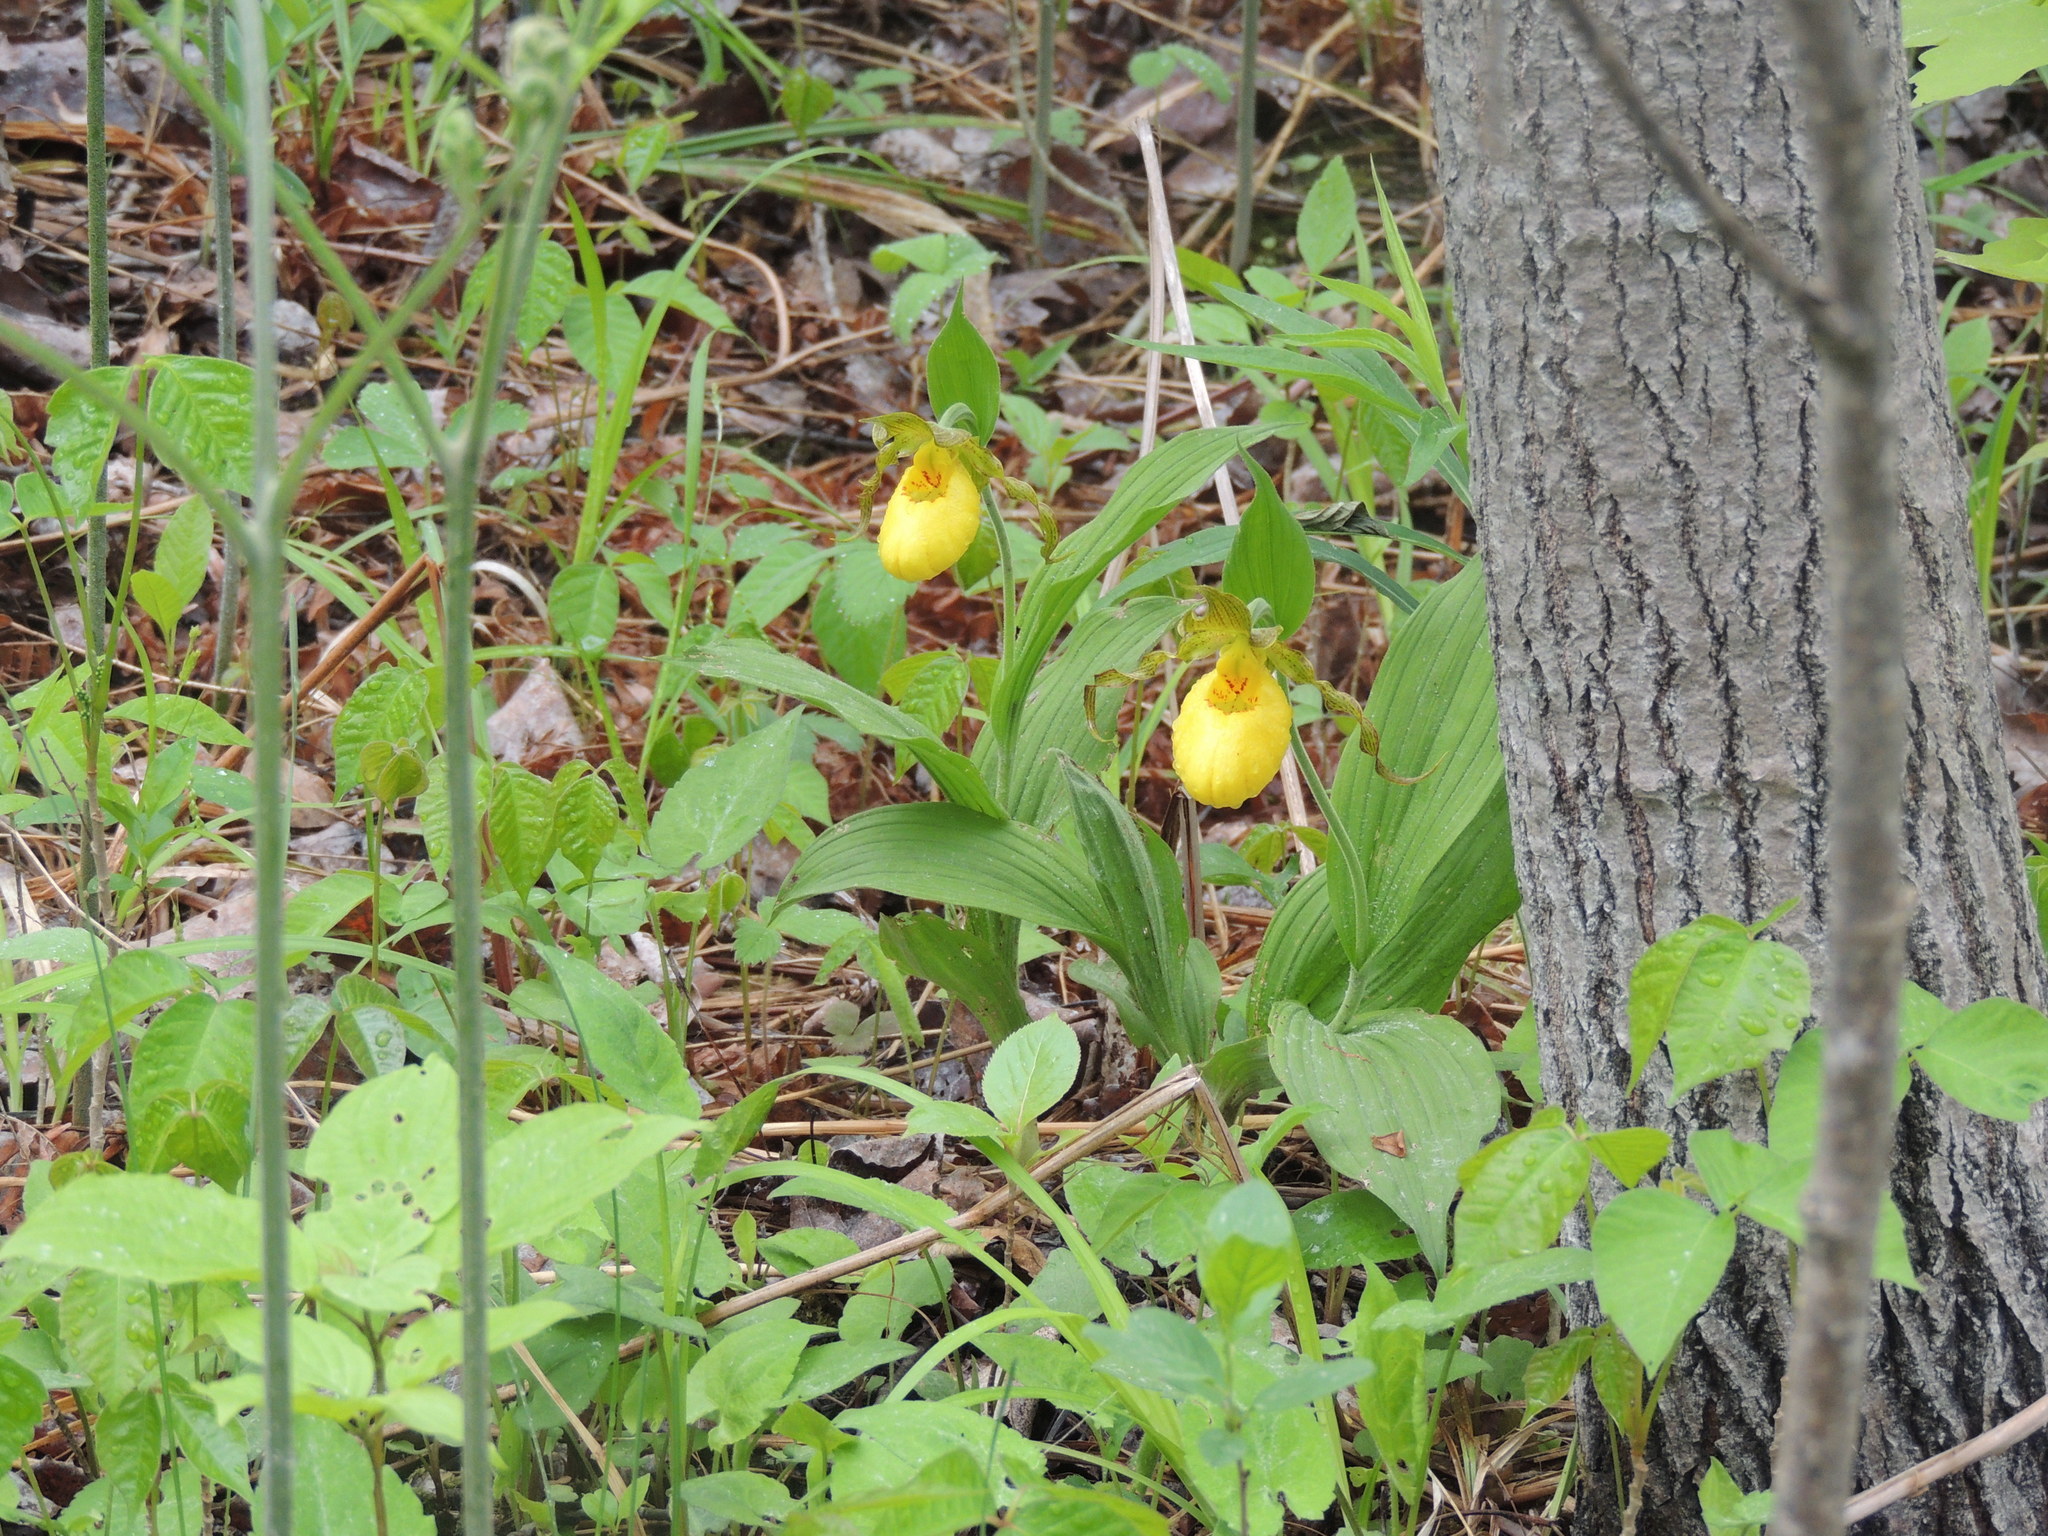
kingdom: Plantae
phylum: Tracheophyta
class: Liliopsida
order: Asparagales
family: Orchidaceae
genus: Cypripedium
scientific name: Cypripedium parviflorum
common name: American yellow lady's-slipper
